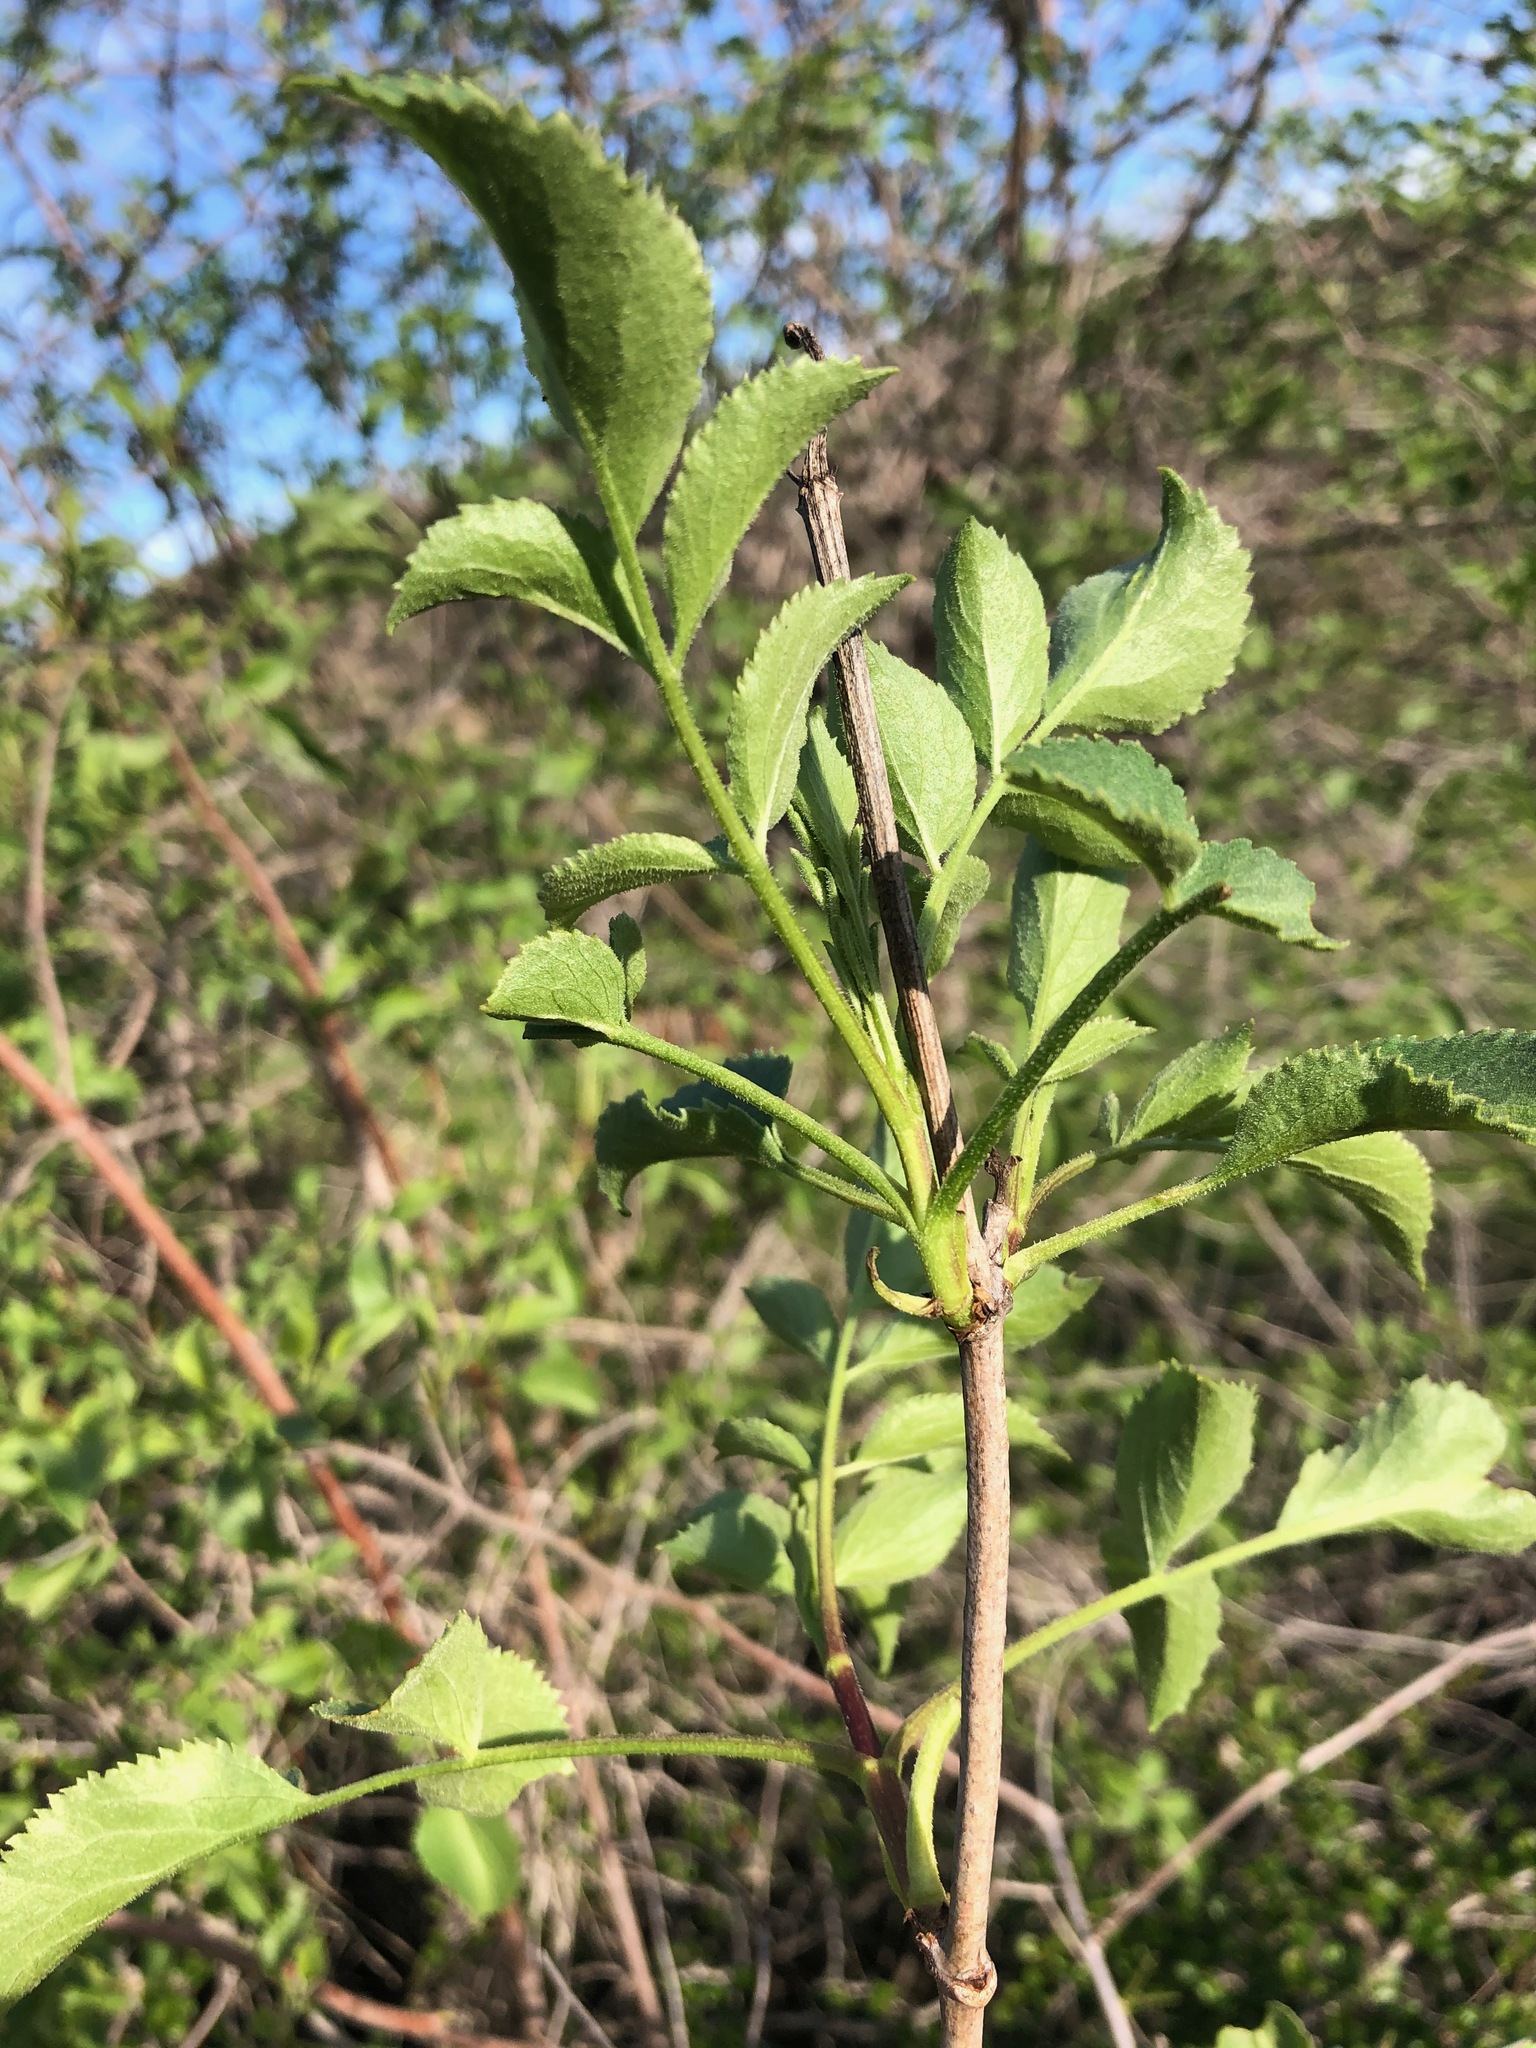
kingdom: Plantae
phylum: Tracheophyta
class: Magnoliopsida
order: Dipsacales
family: Viburnaceae
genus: Sambucus
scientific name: Sambucus cerulea
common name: Blue elder
